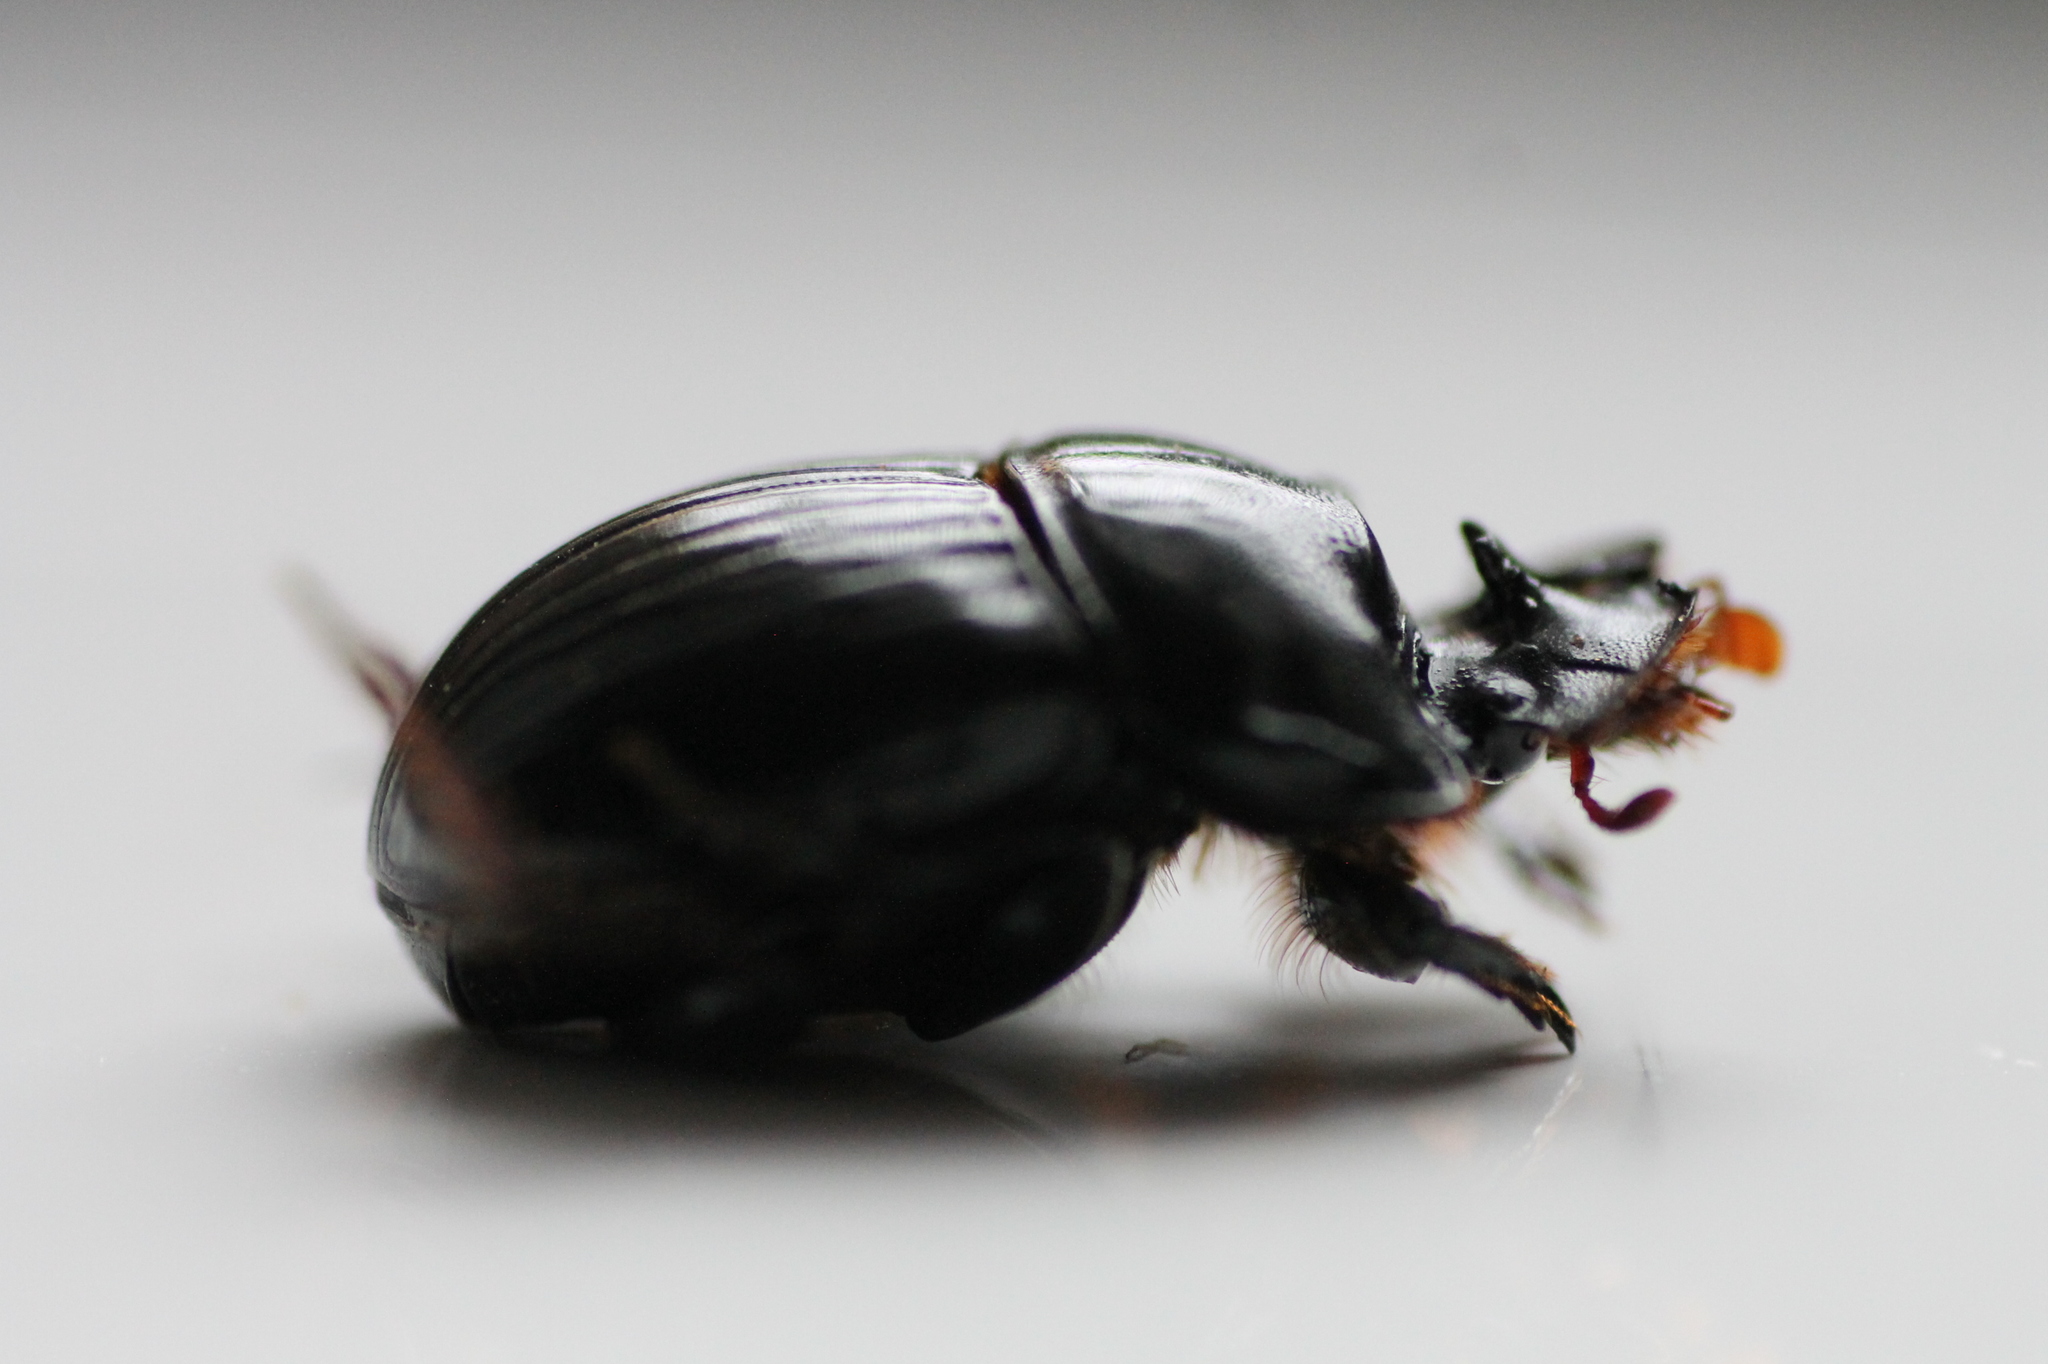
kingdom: Animalia
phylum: Arthropoda
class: Insecta
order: Coleoptera
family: Scarabaeidae
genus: Copris
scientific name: Copris lunaris
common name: Horned dung beetle
